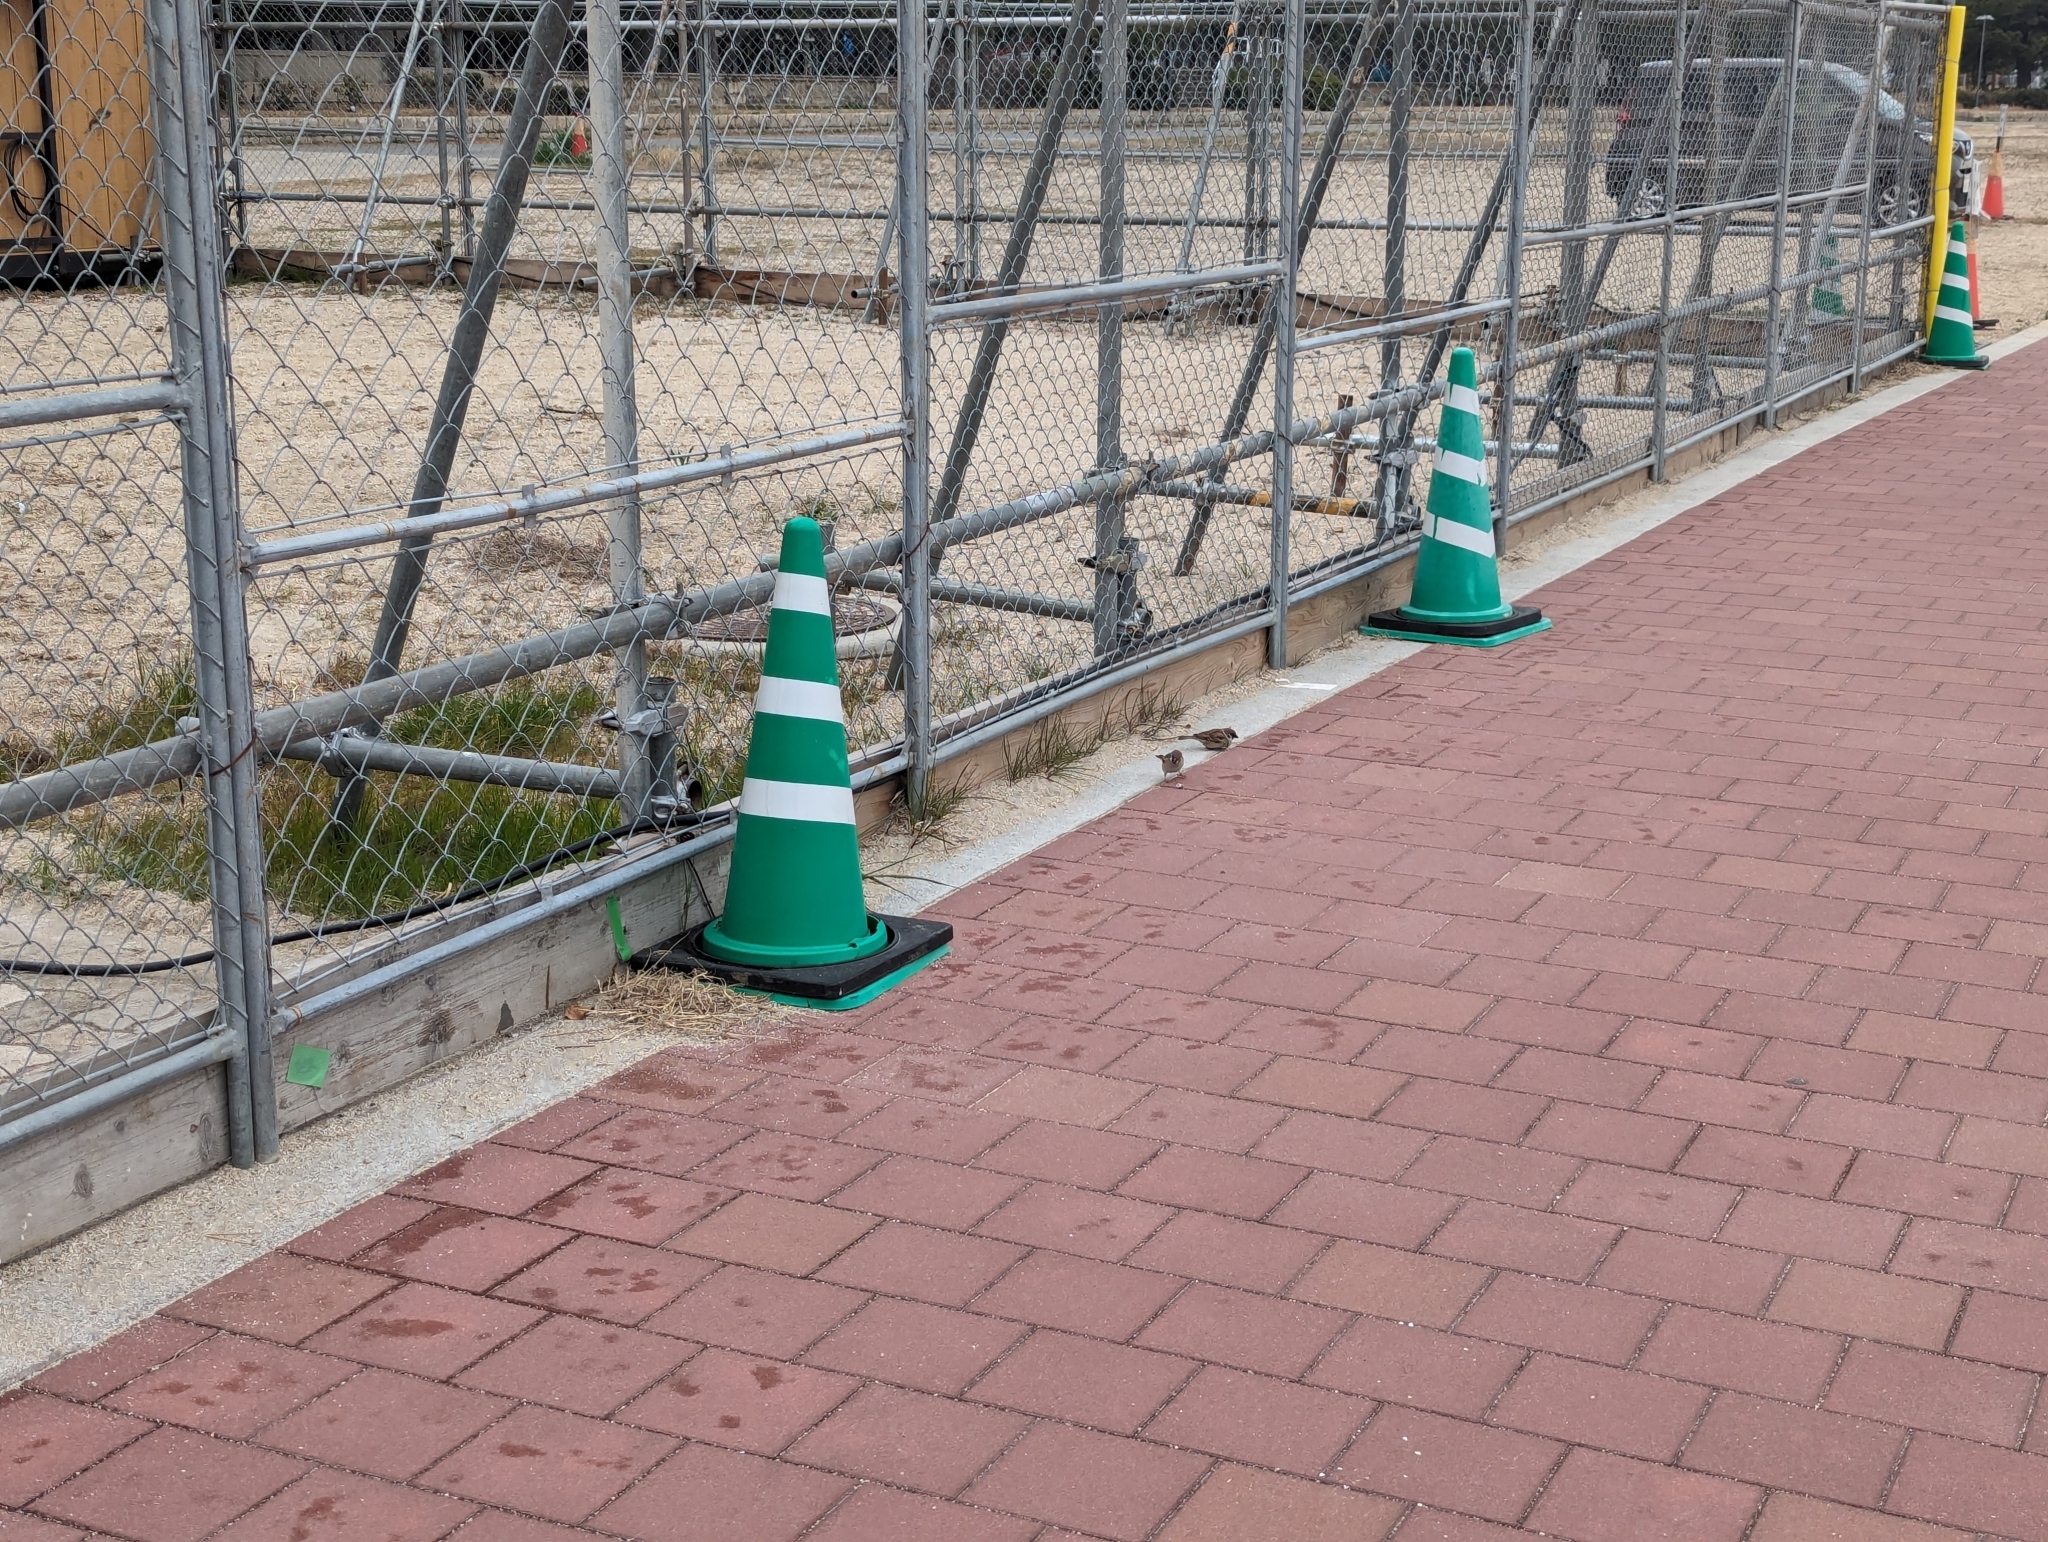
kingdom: Animalia
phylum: Chordata
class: Aves
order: Passeriformes
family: Passeridae
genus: Passer
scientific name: Passer montanus
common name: Eurasian tree sparrow
